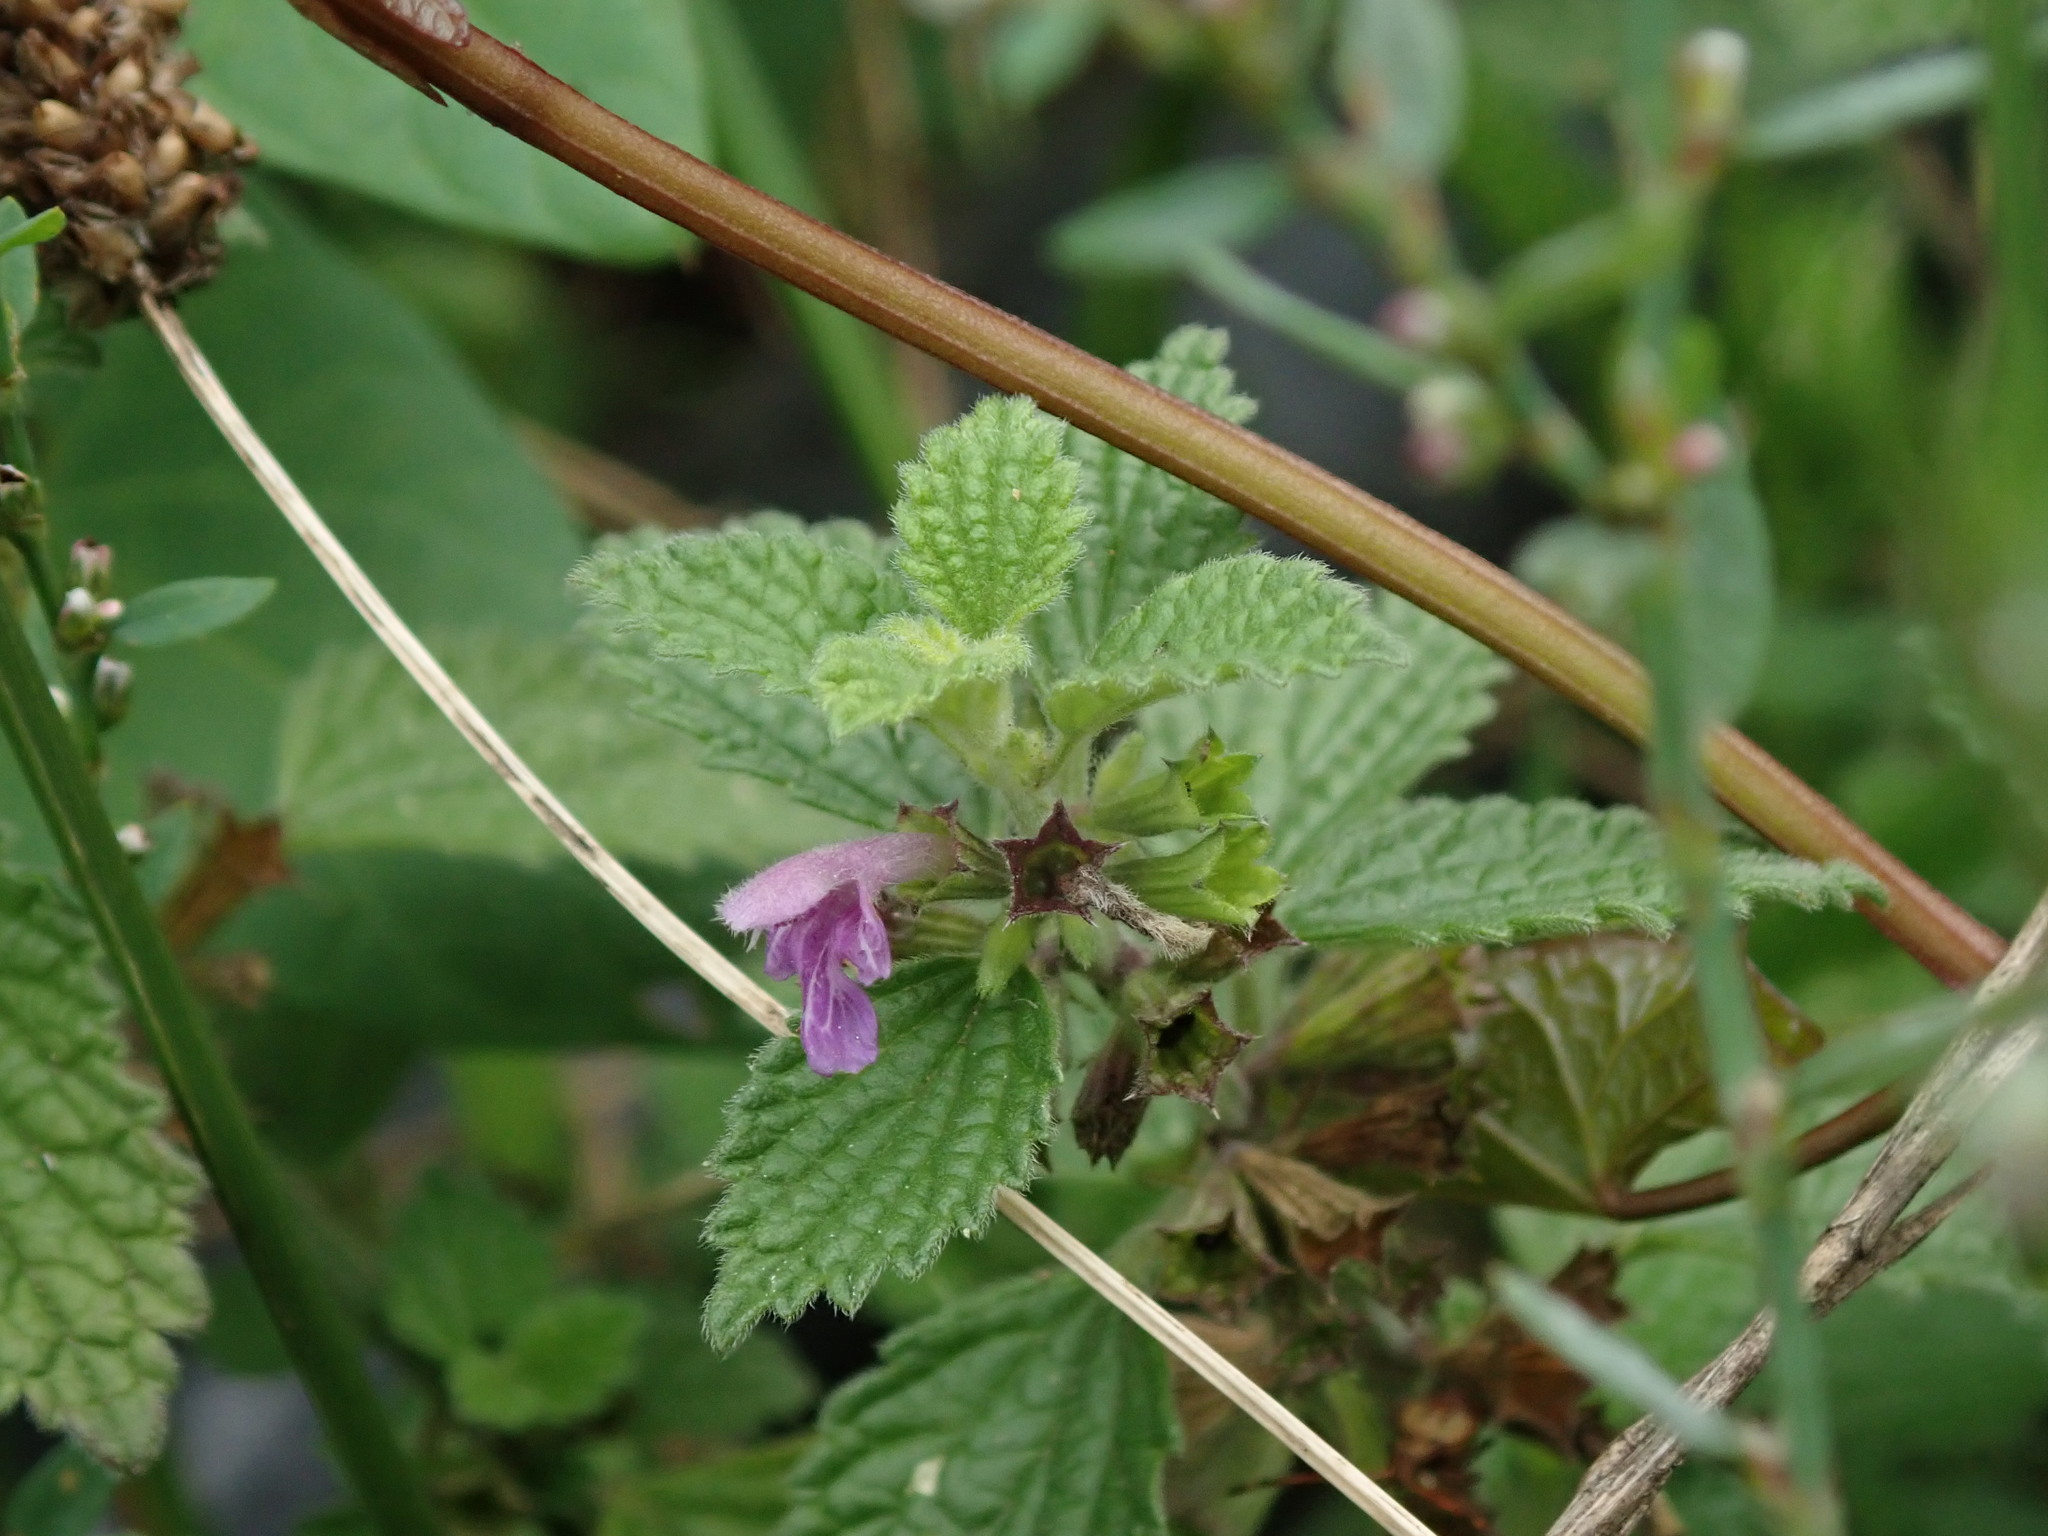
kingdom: Plantae
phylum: Tracheophyta
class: Magnoliopsida
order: Lamiales
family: Lamiaceae
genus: Ballota
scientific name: Ballota nigra
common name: Black horehound
